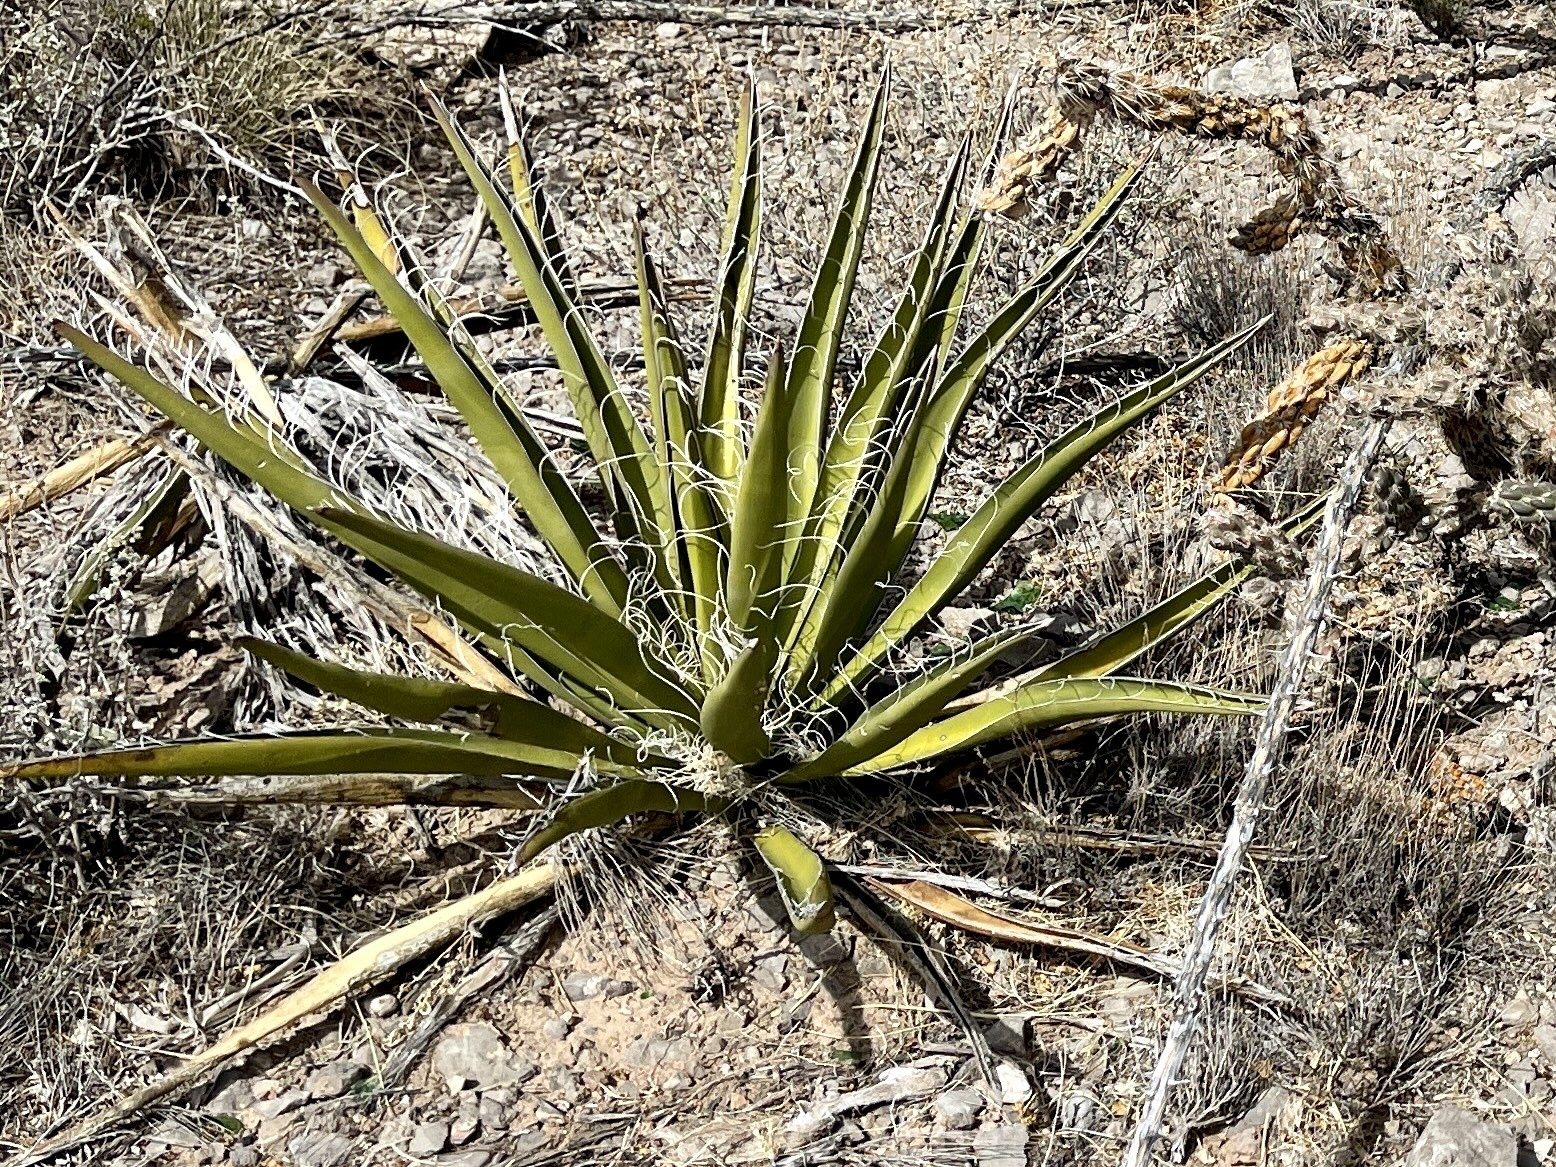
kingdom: Plantae
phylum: Tracheophyta
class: Liliopsida
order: Asparagales
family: Asparagaceae
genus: Yucca
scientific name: Yucca baccata
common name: Banana yucca
